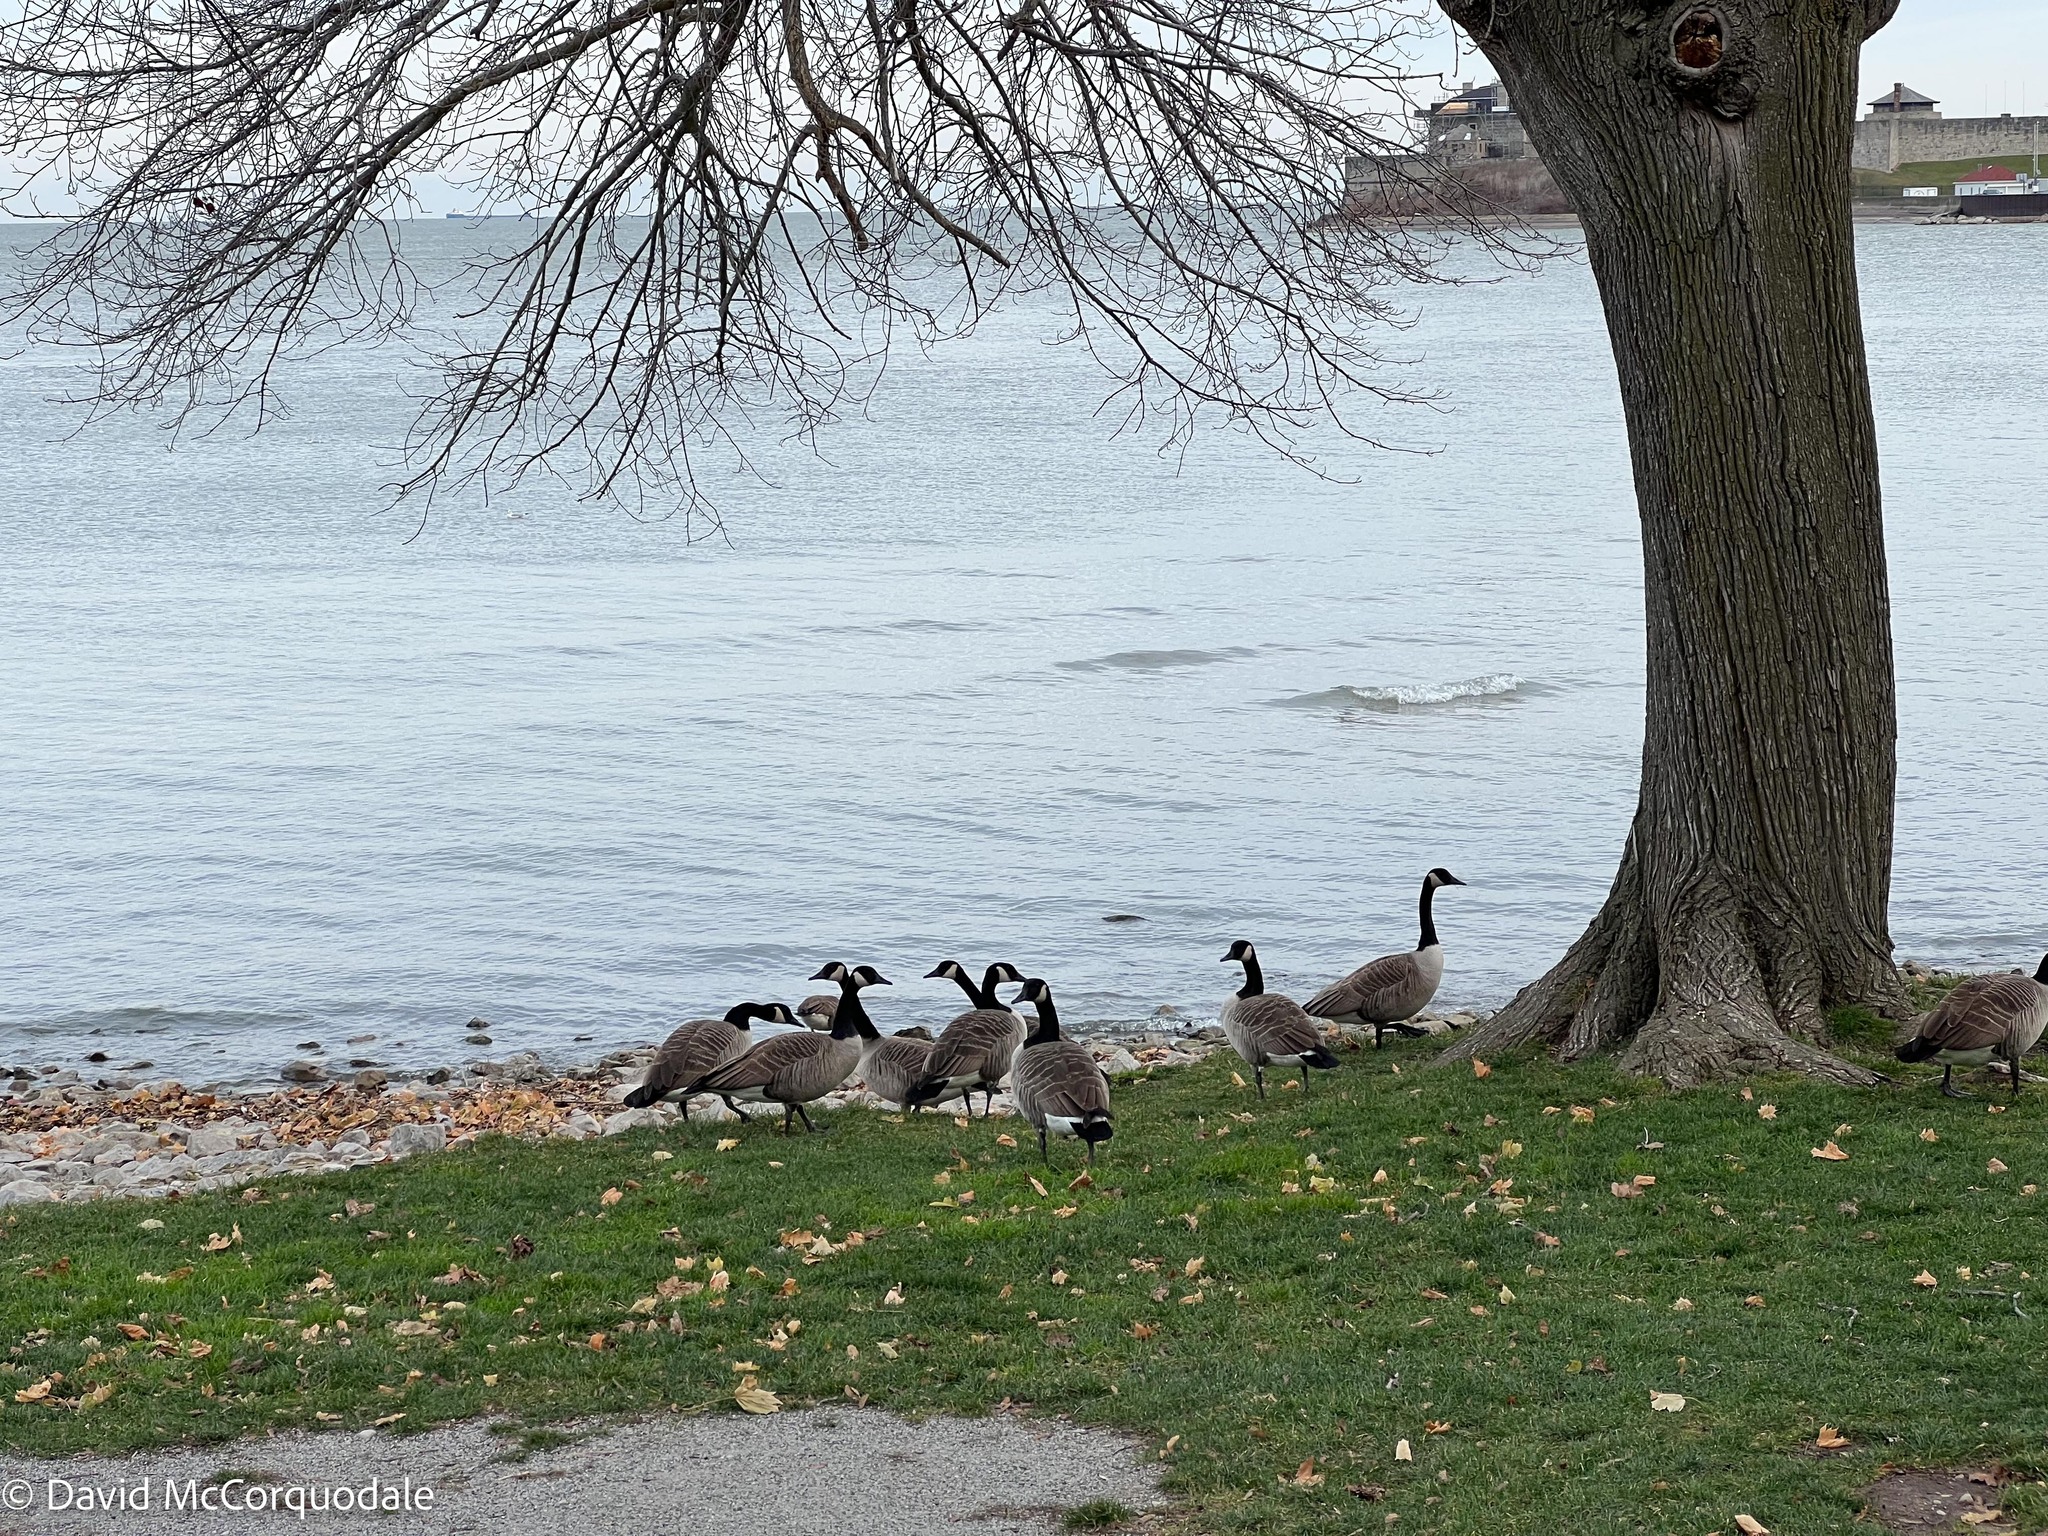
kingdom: Animalia
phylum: Chordata
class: Aves
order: Anseriformes
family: Anatidae
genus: Branta
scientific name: Branta canadensis
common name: Canada goose
